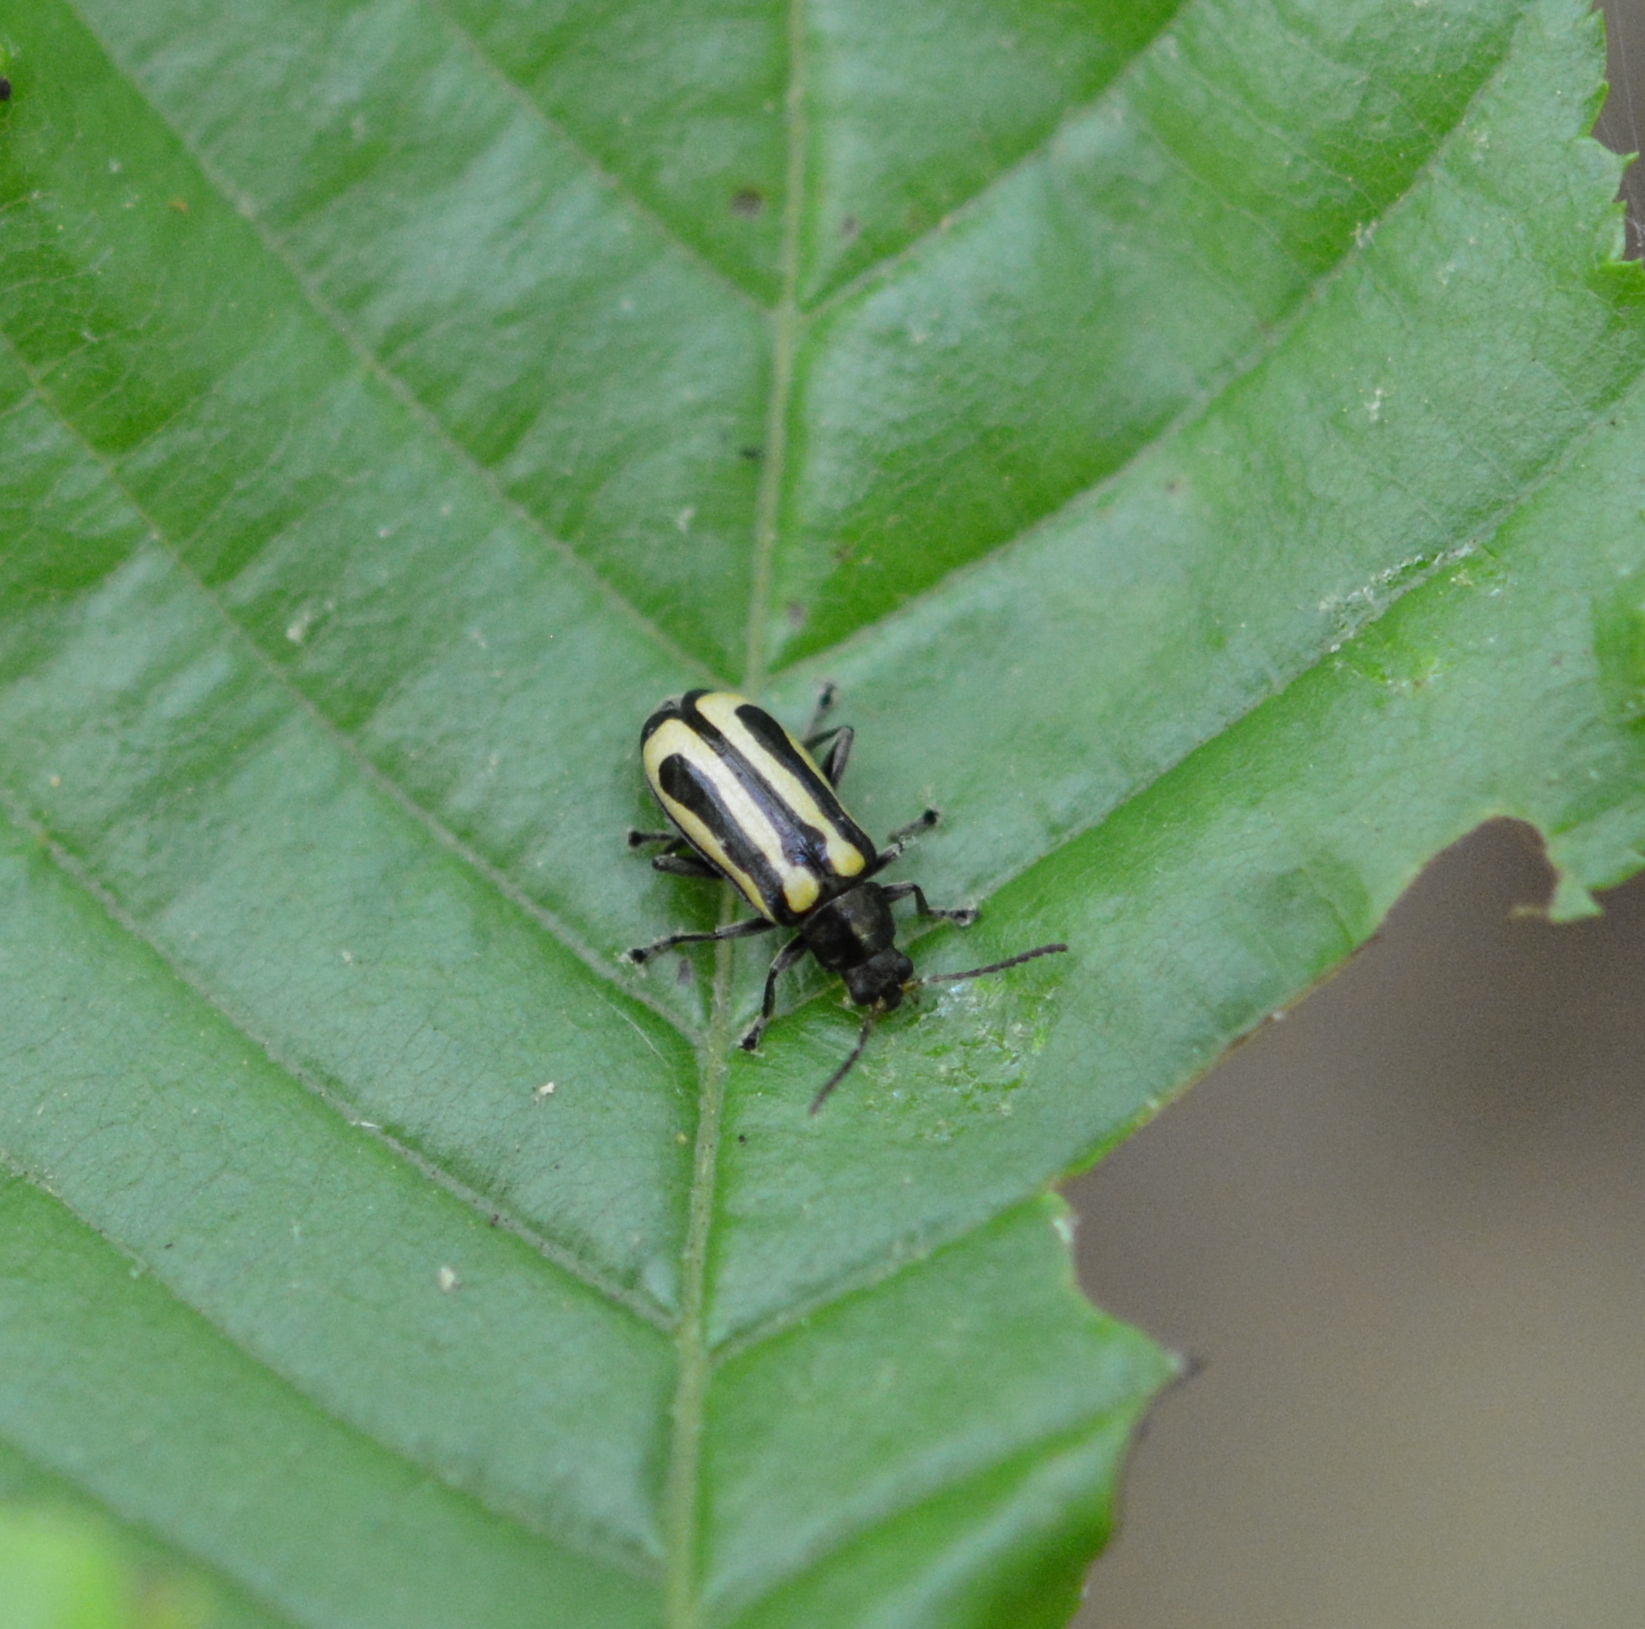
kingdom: Animalia
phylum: Arthropoda
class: Insecta
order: Coleoptera
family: Chrysomelidae
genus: Agasicles
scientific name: Agasicles hygrophila
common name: Alligatorweed flea beetle
